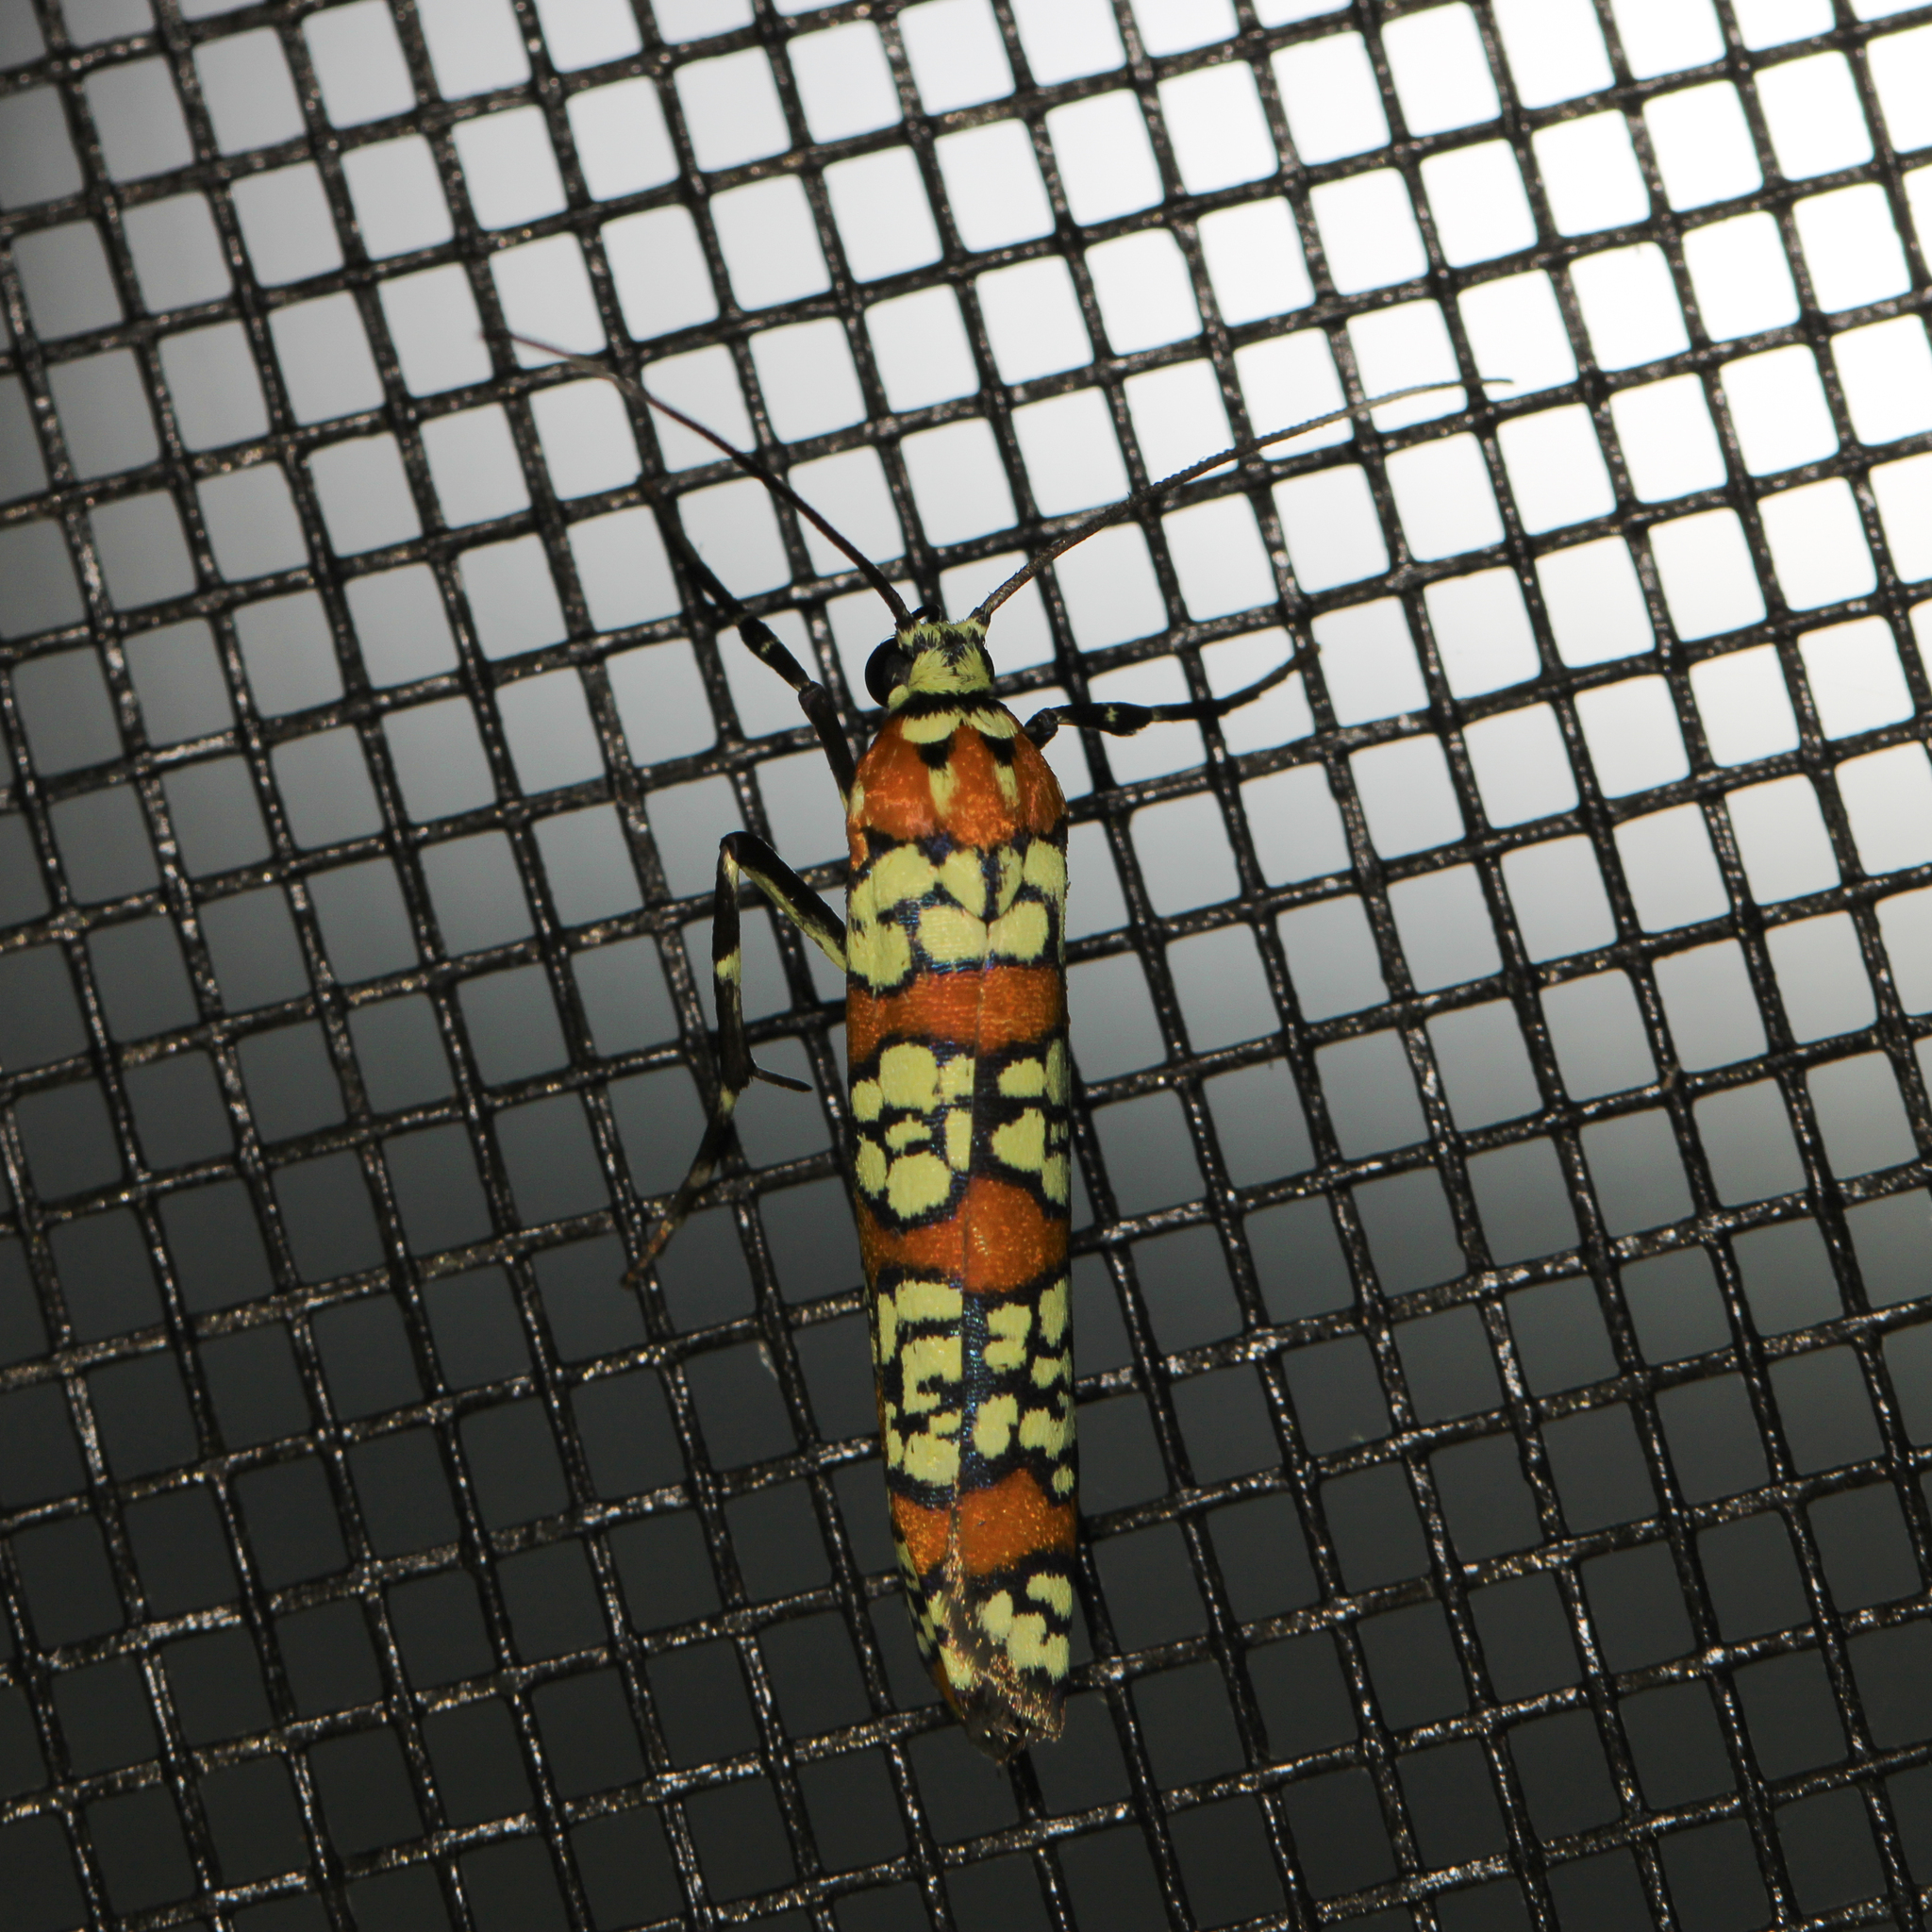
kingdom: Animalia
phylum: Arthropoda
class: Insecta
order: Lepidoptera
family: Attevidae
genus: Atteva
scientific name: Atteva punctella
